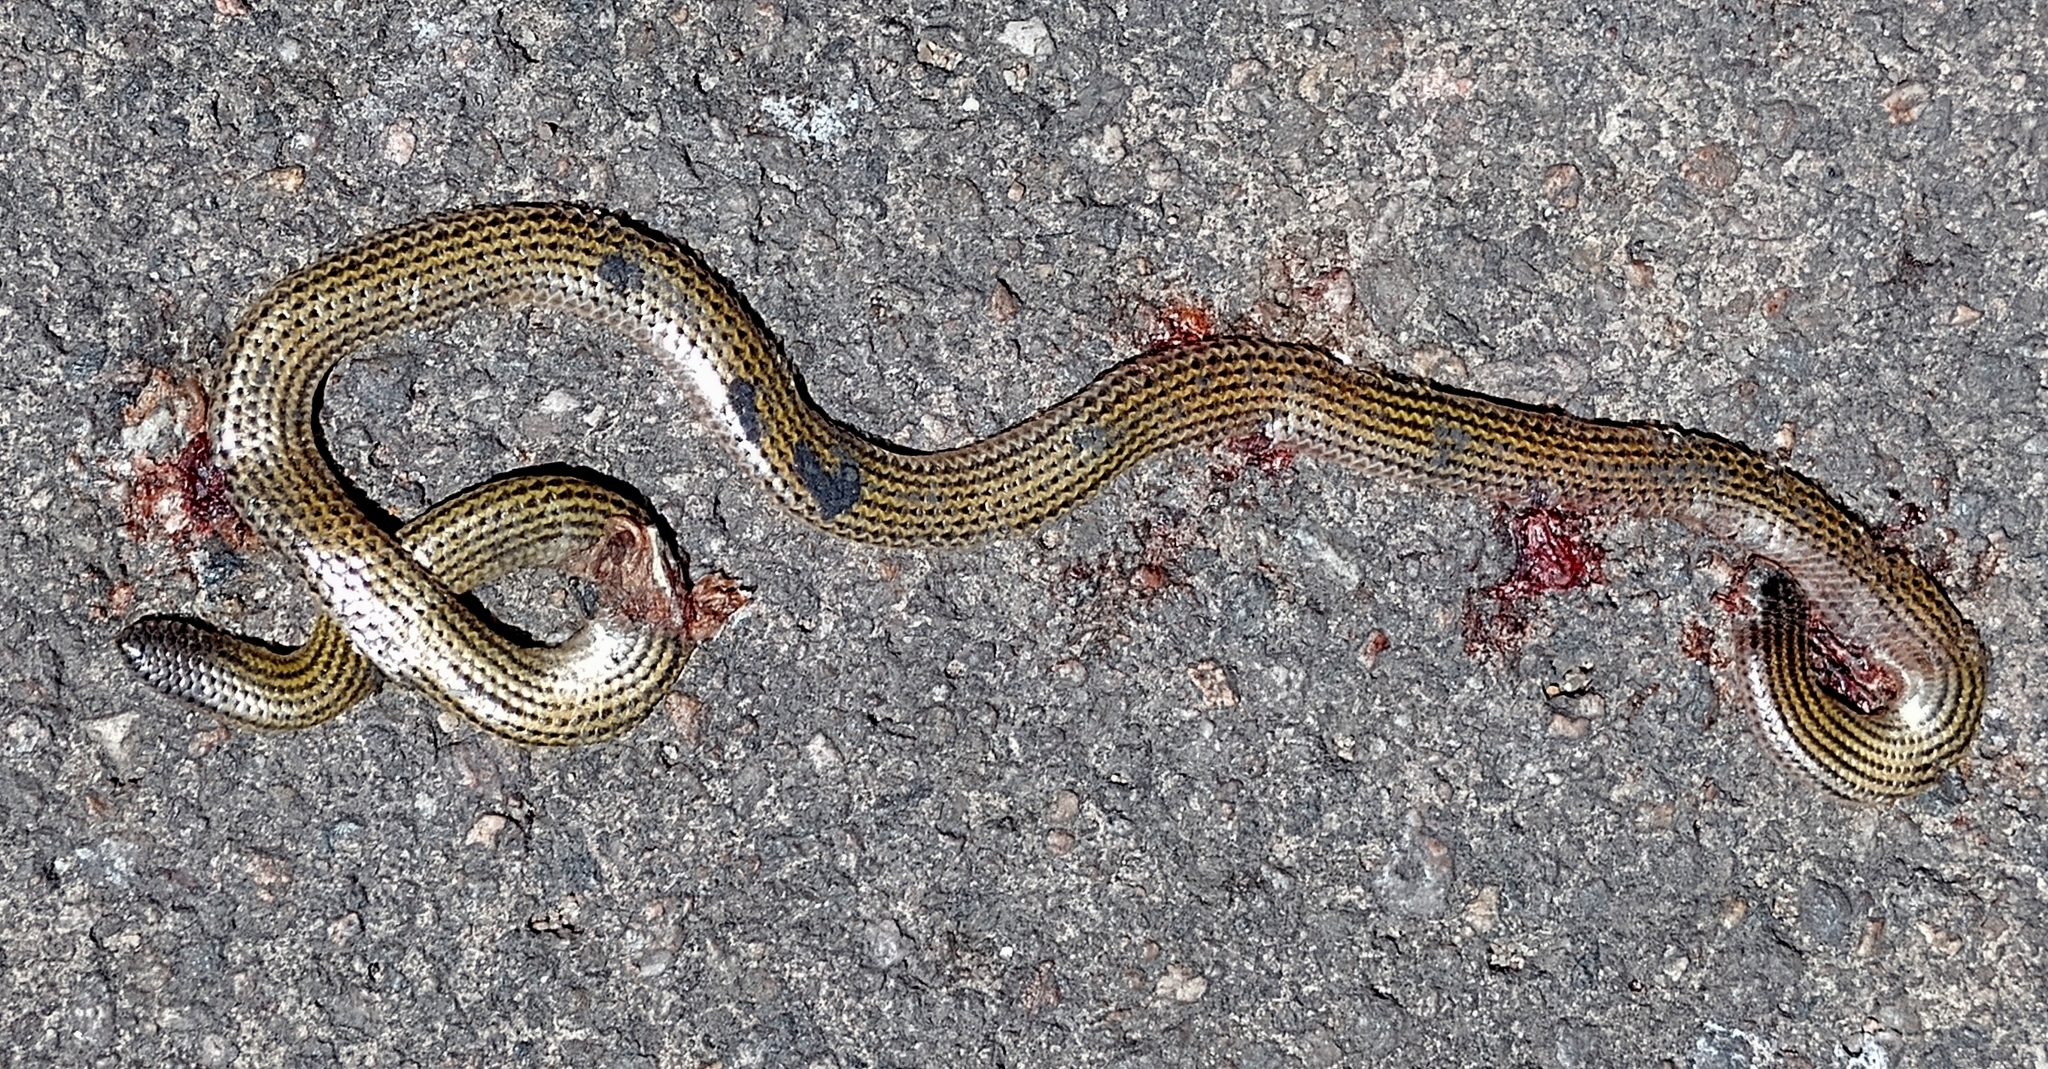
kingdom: Animalia
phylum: Chordata
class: Squamata
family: Leptotyphlopidae
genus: Epictia
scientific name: Epictia albipuncta
